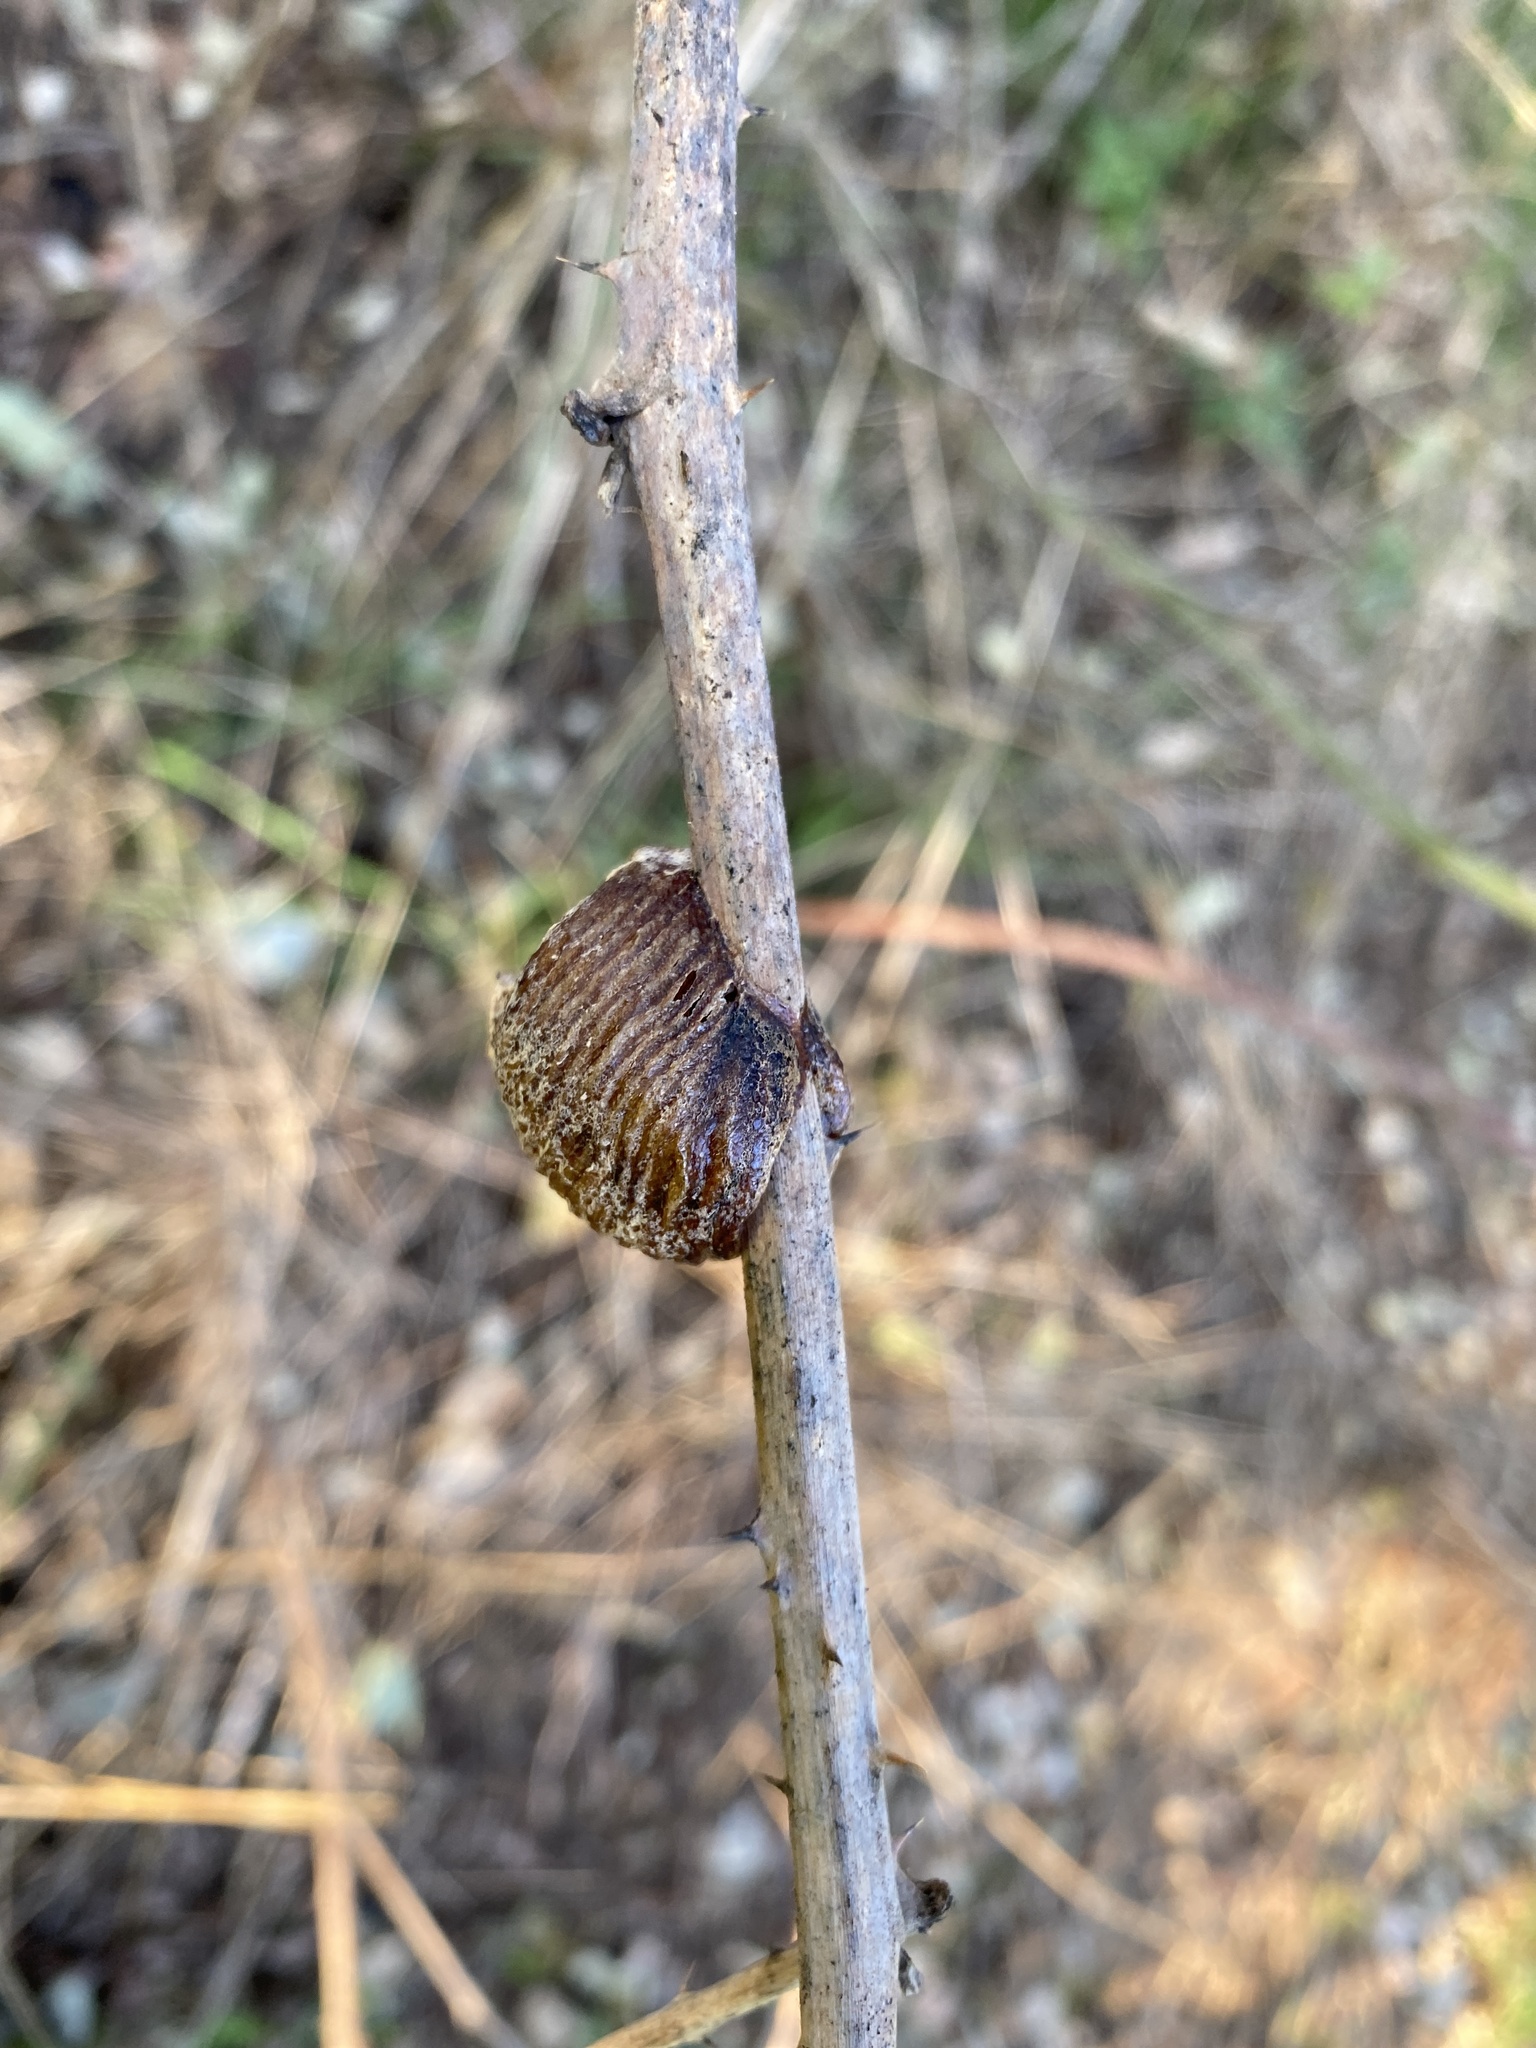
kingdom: Animalia
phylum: Arthropoda
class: Insecta
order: Mantodea
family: Mantidae
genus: Hierodula
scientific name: Hierodula transcaucasica
